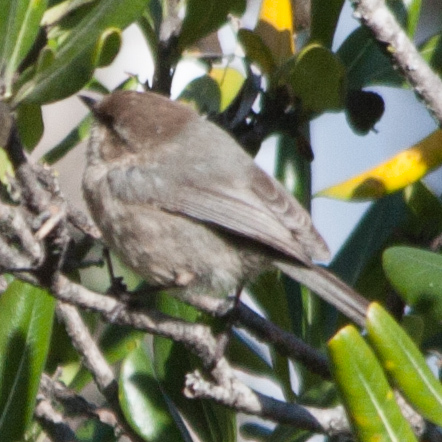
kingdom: Animalia
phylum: Chordata
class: Aves
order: Passeriformes
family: Aegithalidae
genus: Psaltriparus
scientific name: Psaltriparus minimus
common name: American bushtit
